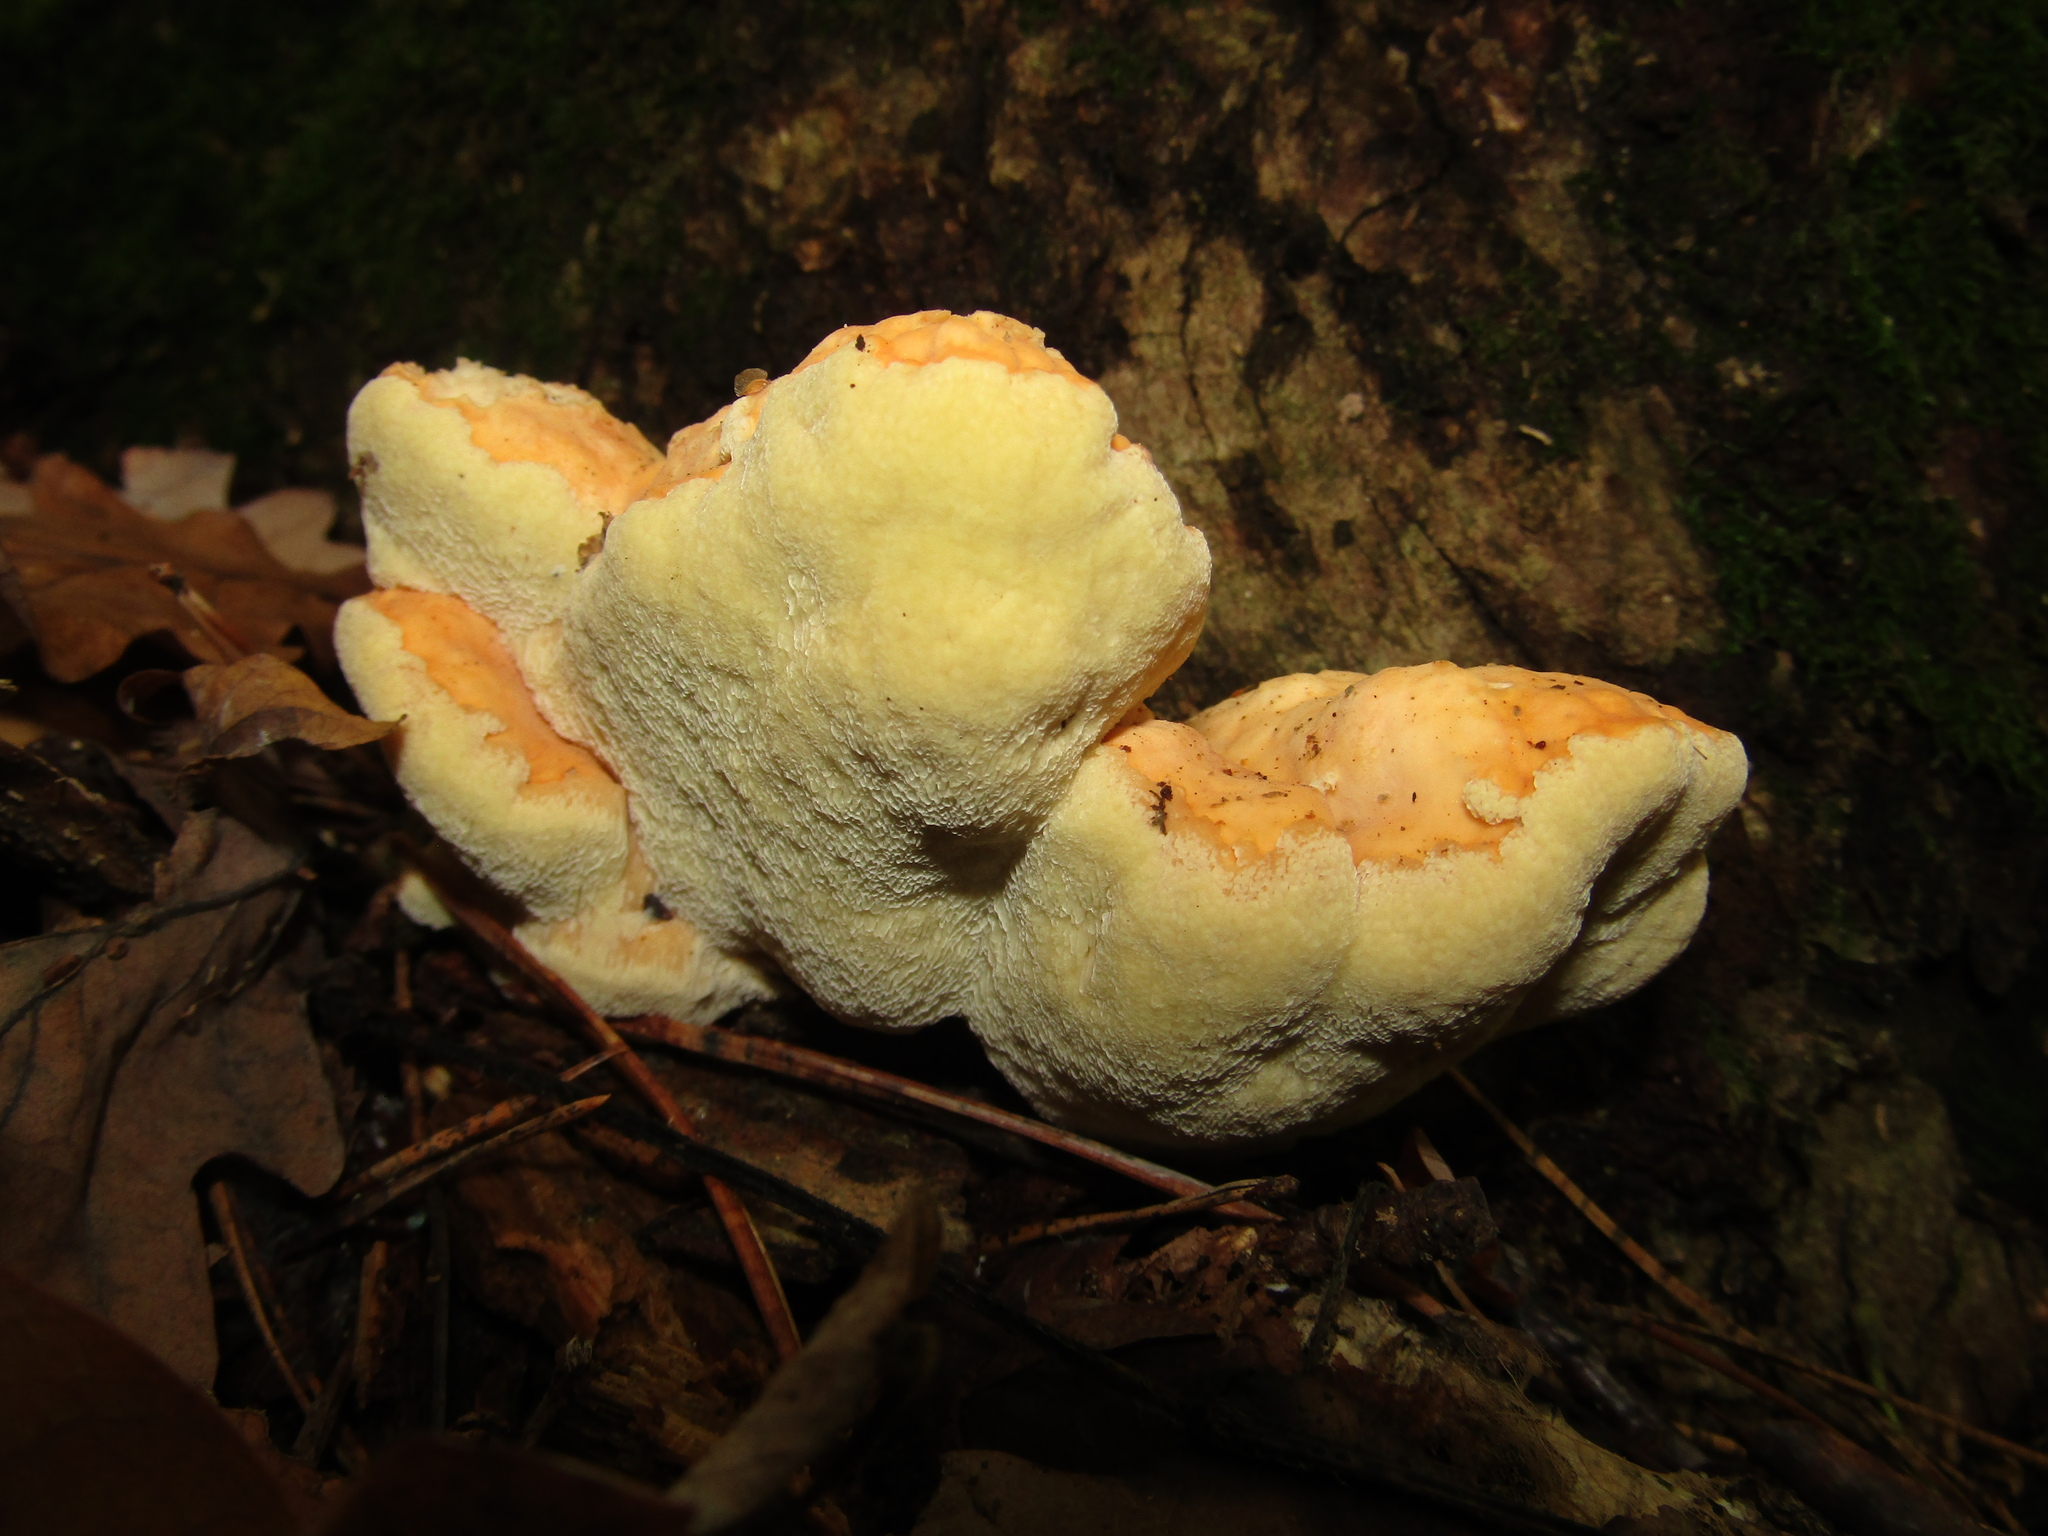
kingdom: Fungi
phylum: Basidiomycota
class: Agaricomycetes
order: Polyporales
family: Laetiporaceae
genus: Laetiporus
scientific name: Laetiporus sulphureus
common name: Chicken of the woods
